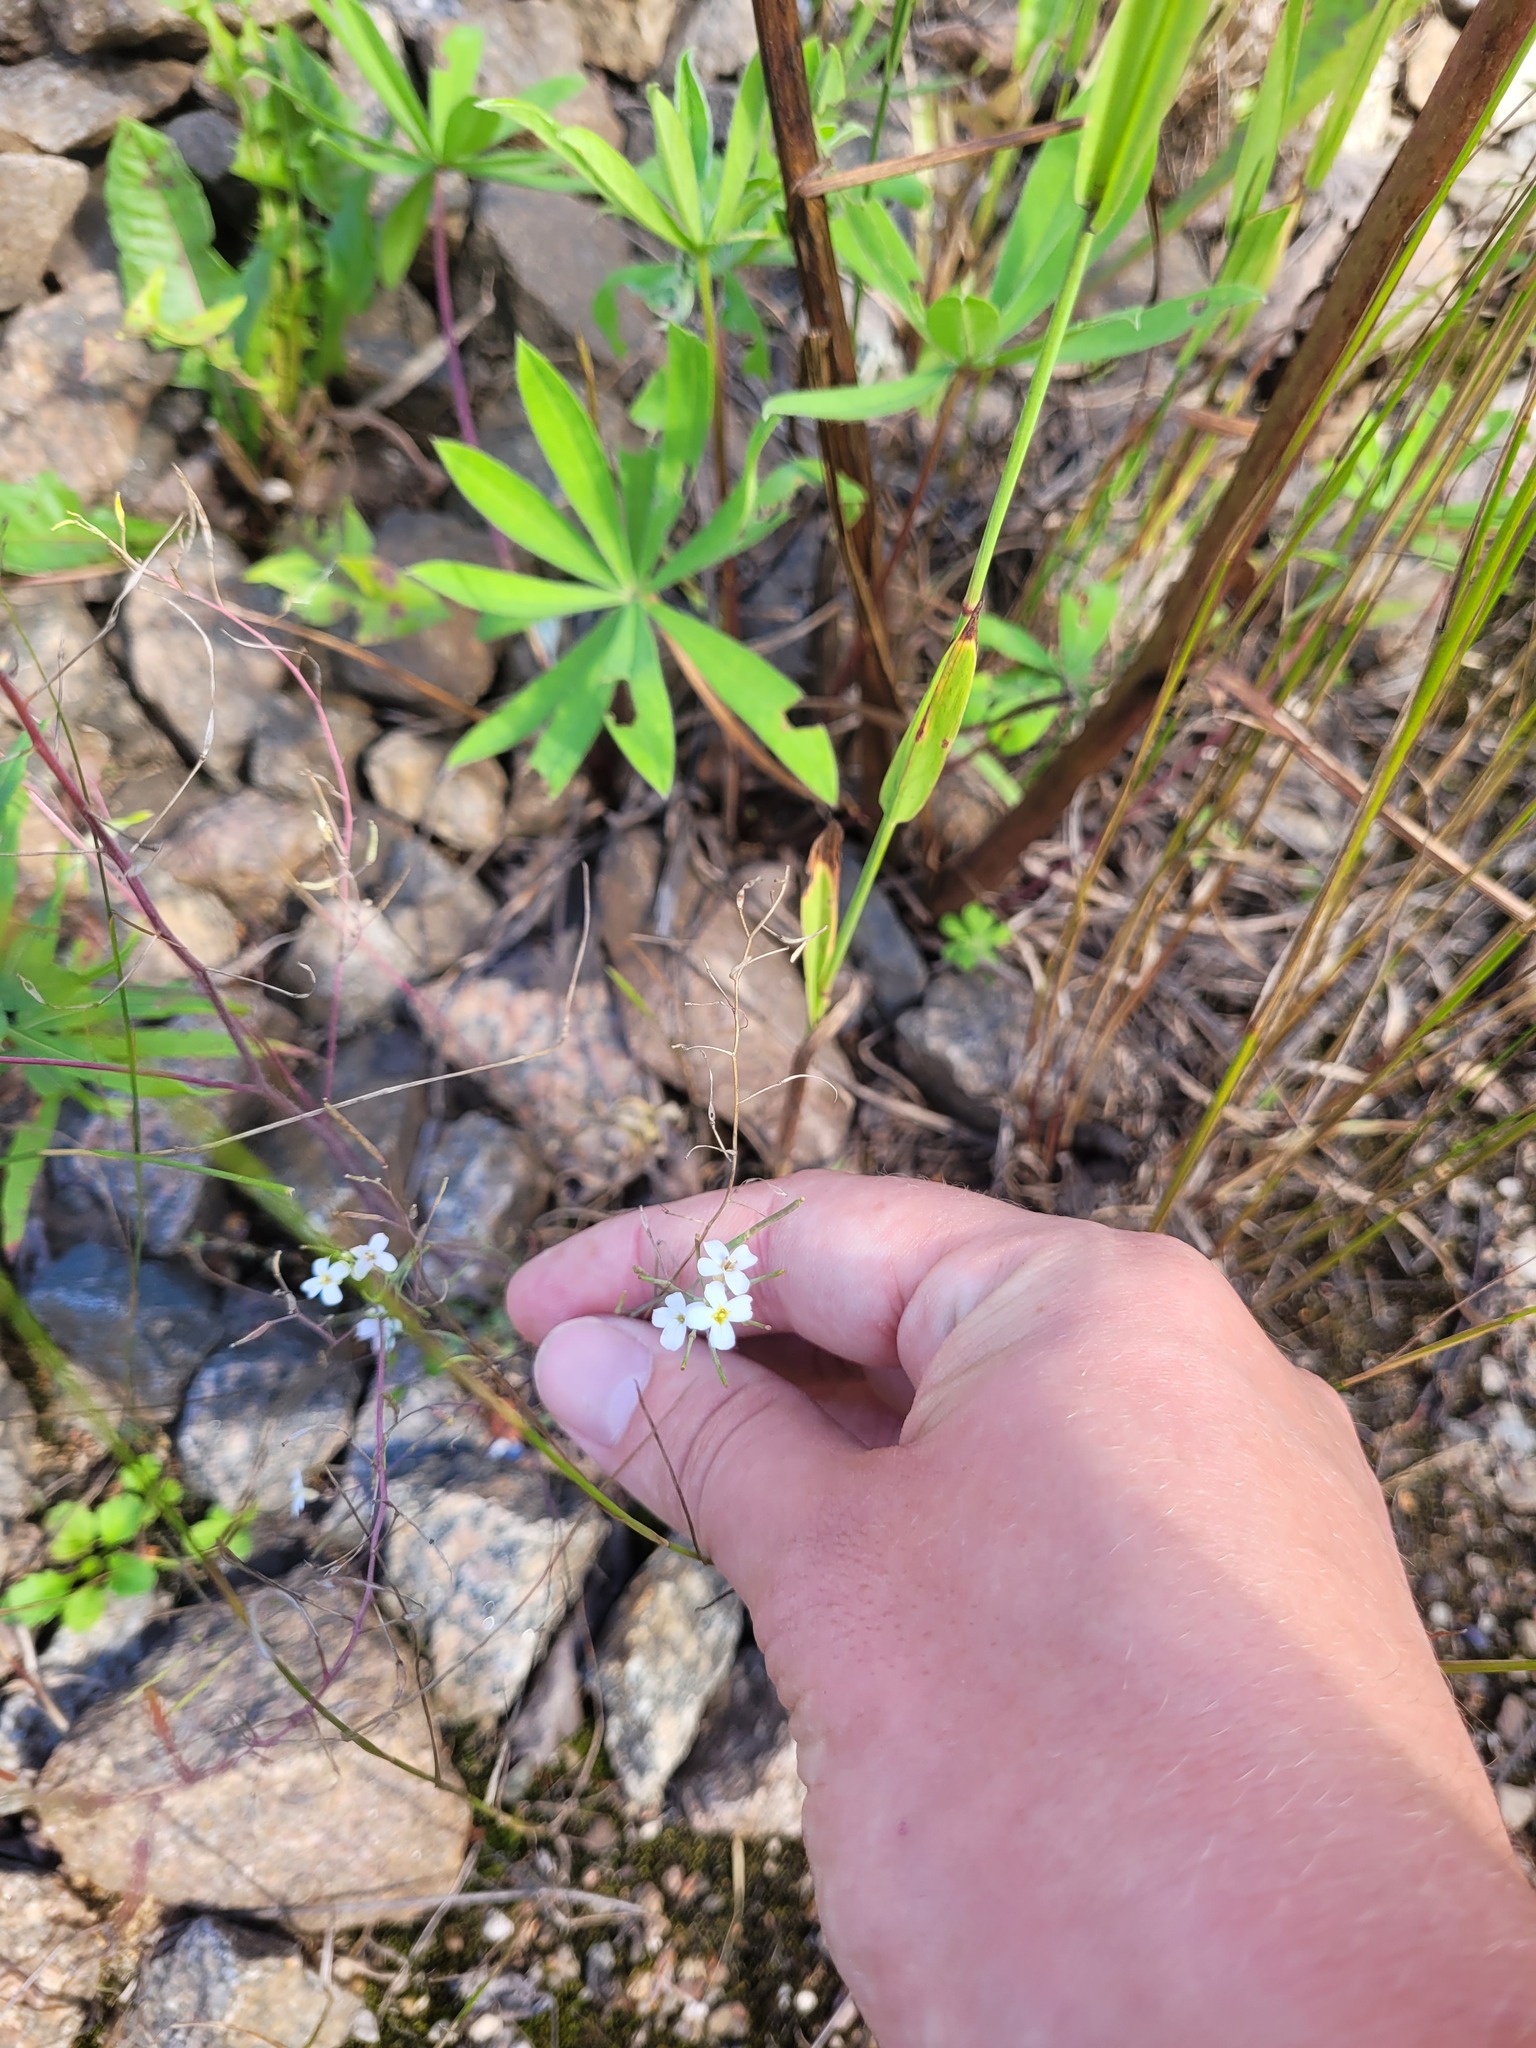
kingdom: Plantae
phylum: Tracheophyta
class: Magnoliopsida
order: Brassicales
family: Brassicaceae
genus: Arabidopsis
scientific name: Arabidopsis arenosa
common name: Sand rock-cress
